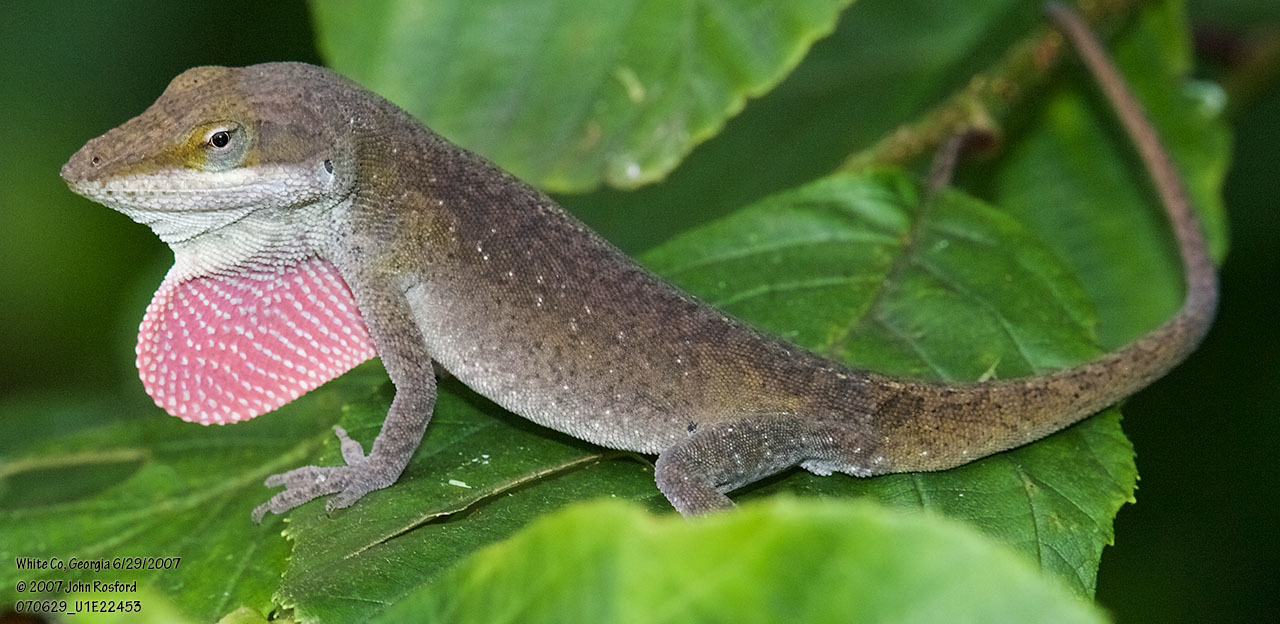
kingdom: Animalia
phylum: Chordata
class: Squamata
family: Dactyloidae
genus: Anolis
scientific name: Anolis carolinensis
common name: Green anole
